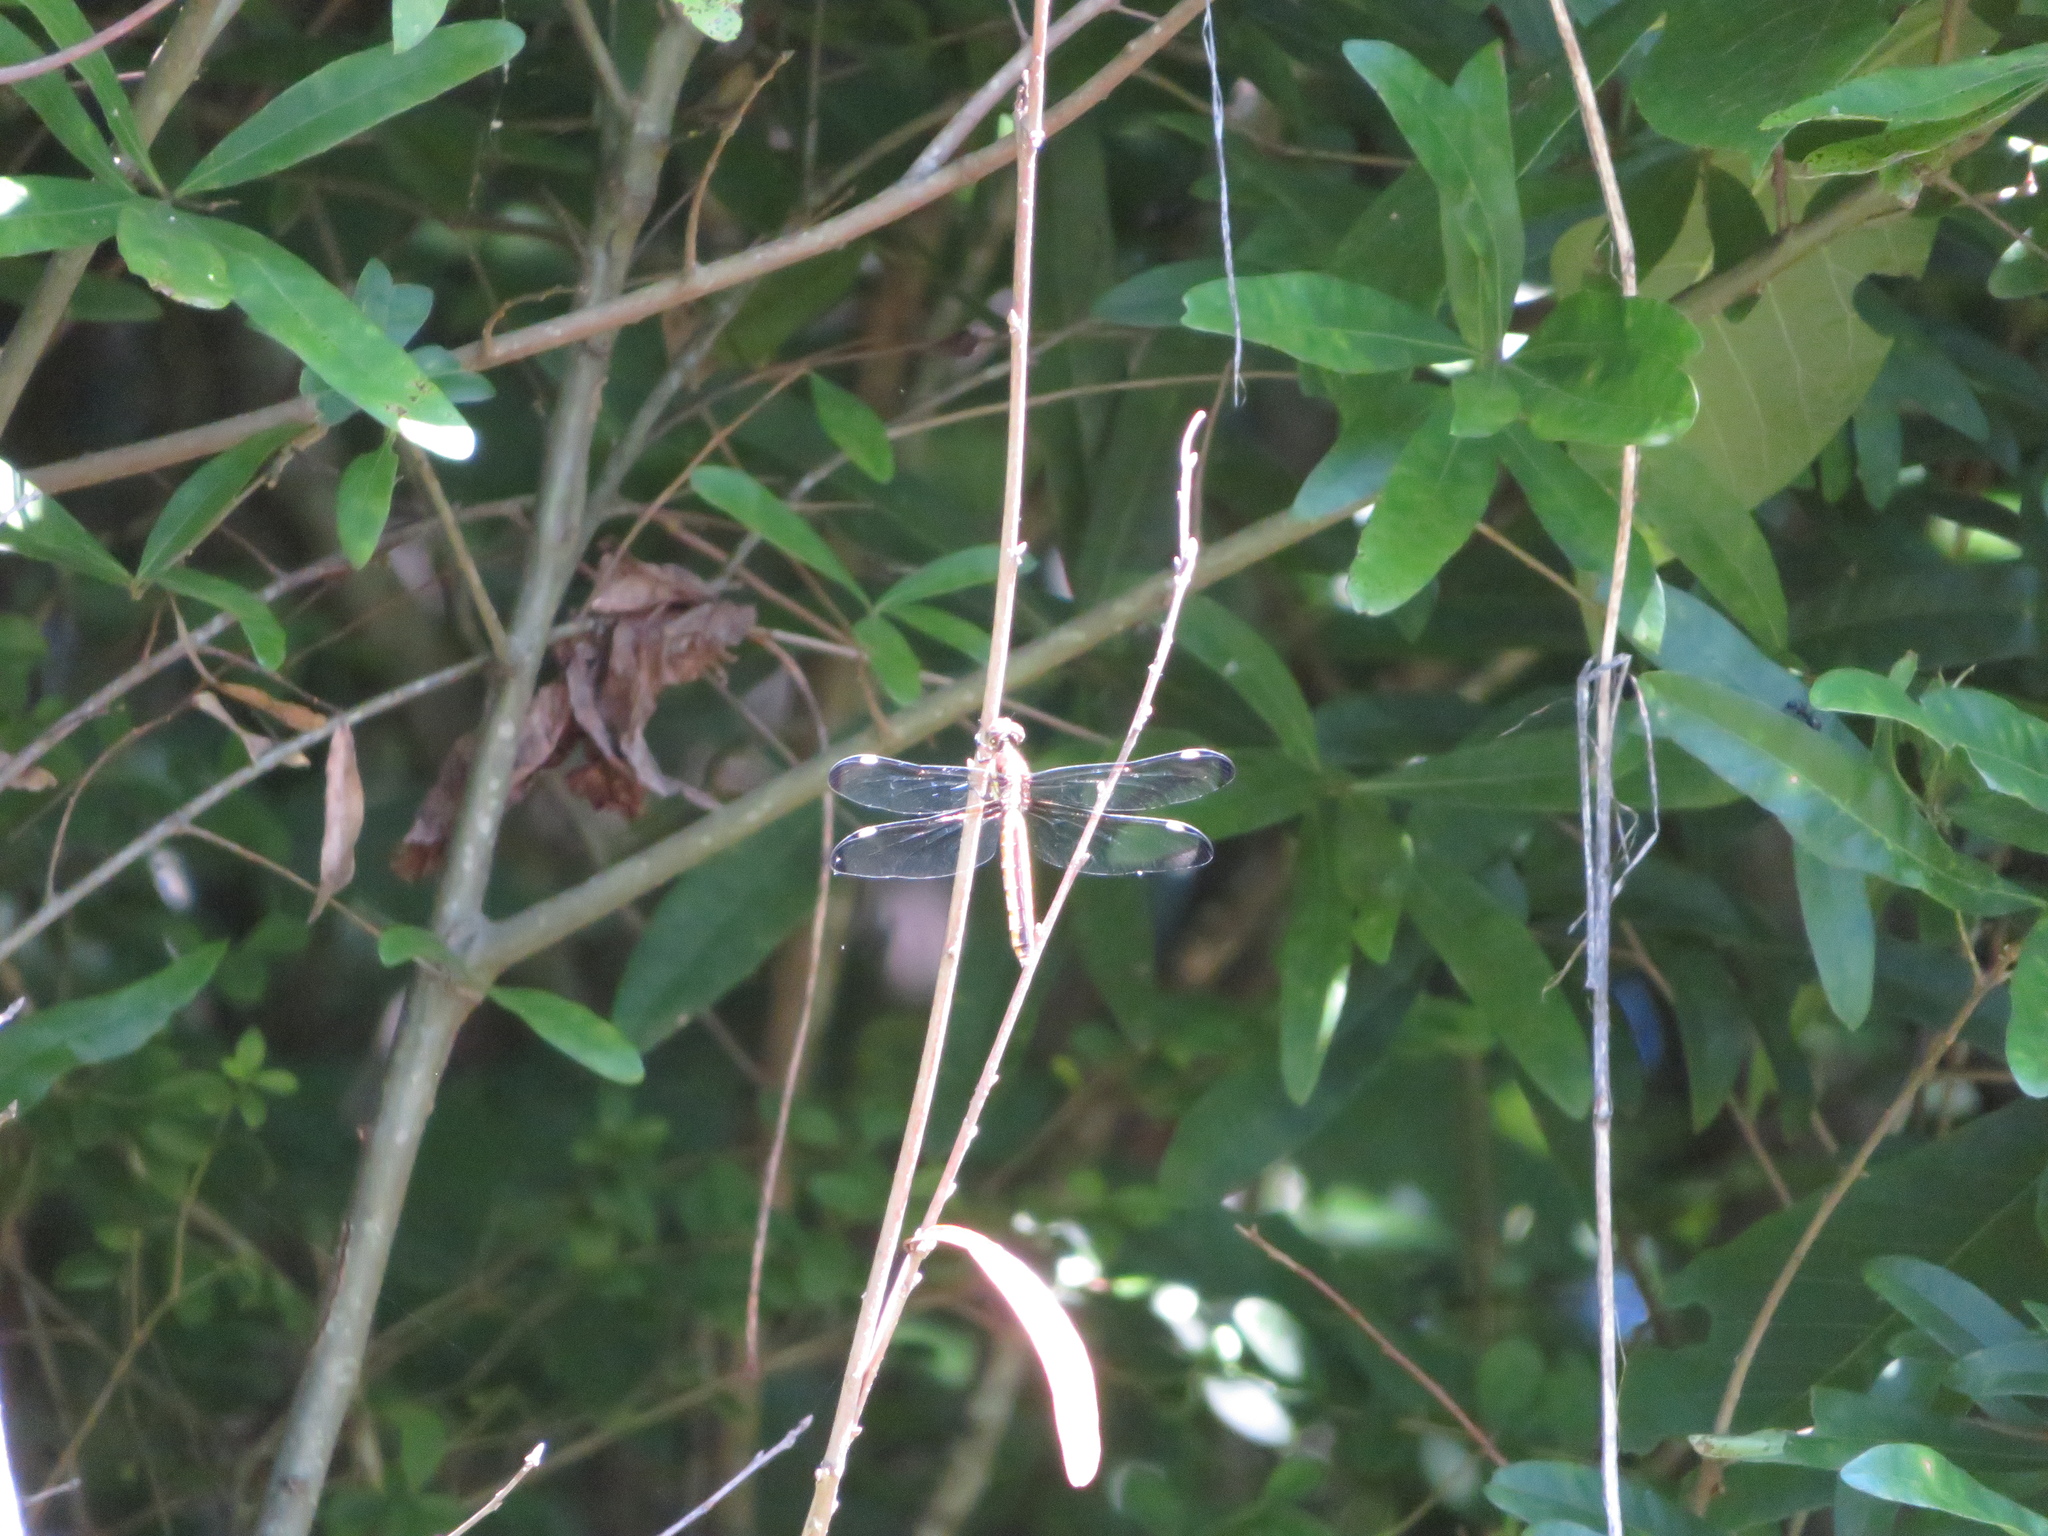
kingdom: Animalia
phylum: Arthropoda
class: Insecta
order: Odonata
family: Libellulidae
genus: Libellula
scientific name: Libellula cyanea
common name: Spangled skimmer
